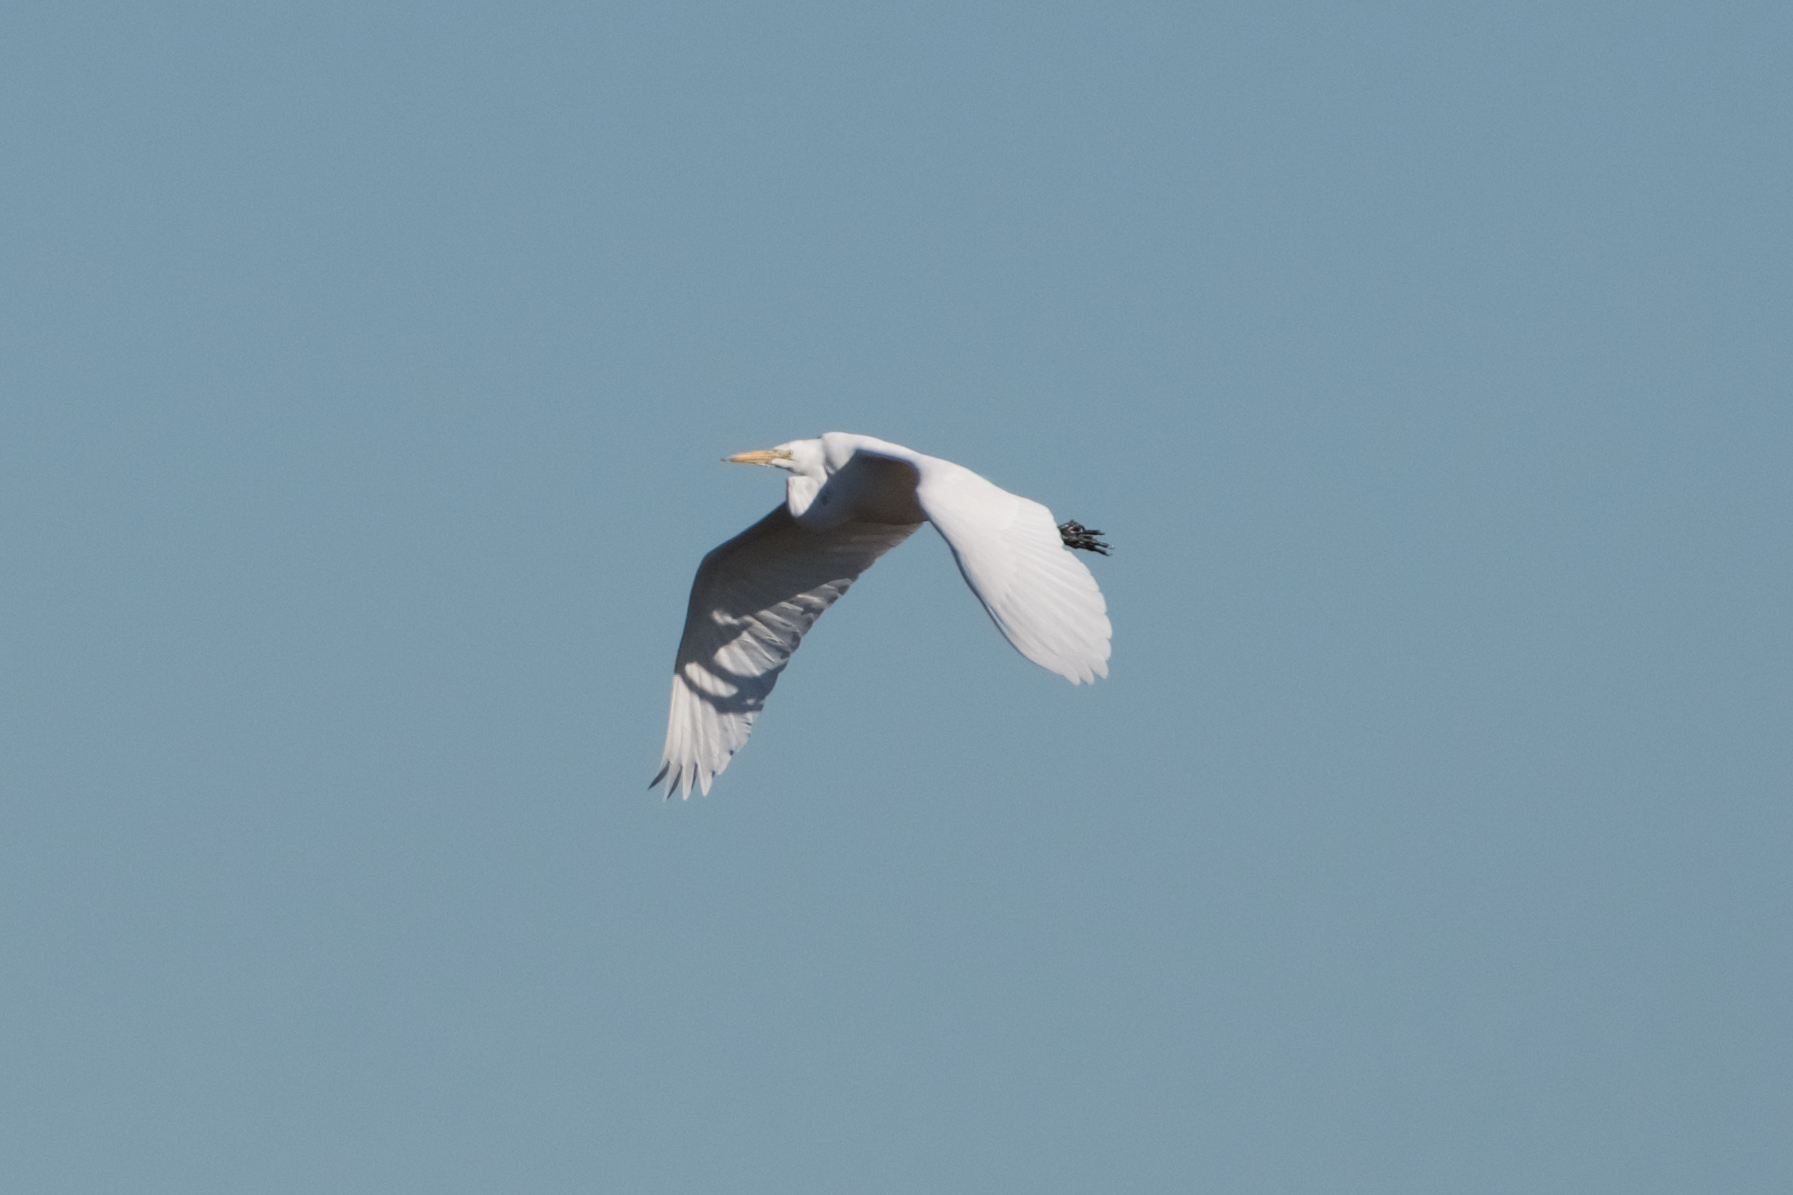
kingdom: Animalia
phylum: Chordata
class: Aves
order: Pelecaniformes
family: Ardeidae
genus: Ardea
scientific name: Ardea alba
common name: Great egret
